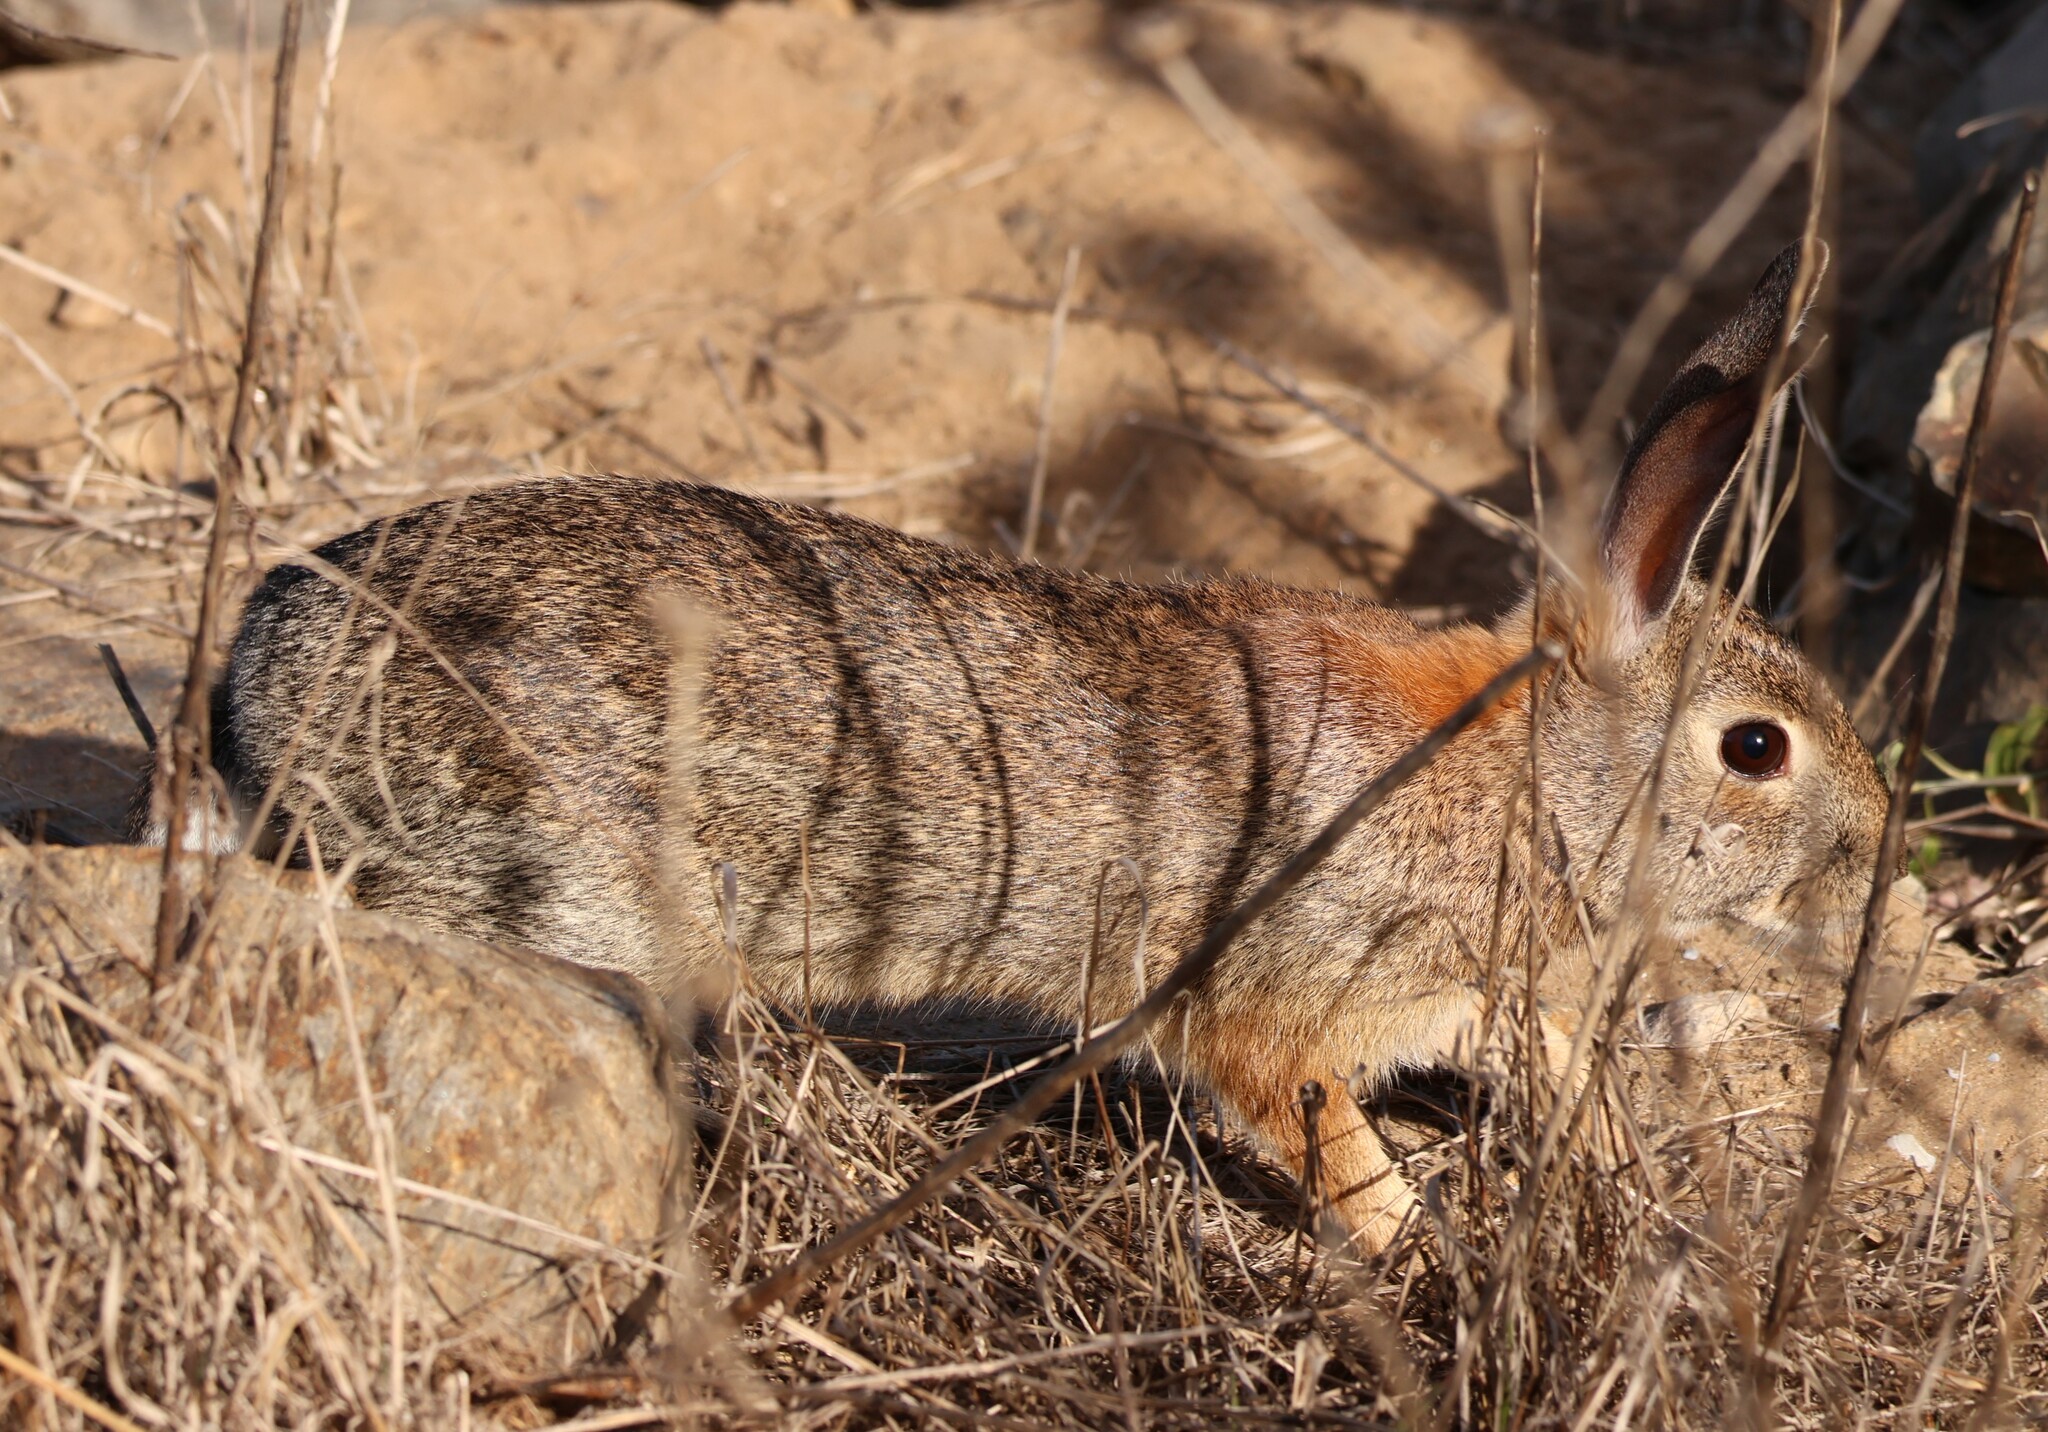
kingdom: Animalia
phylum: Chordata
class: Mammalia
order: Lagomorpha
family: Leporidae
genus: Sylvilagus
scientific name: Sylvilagus audubonii
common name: Desert cottontail
